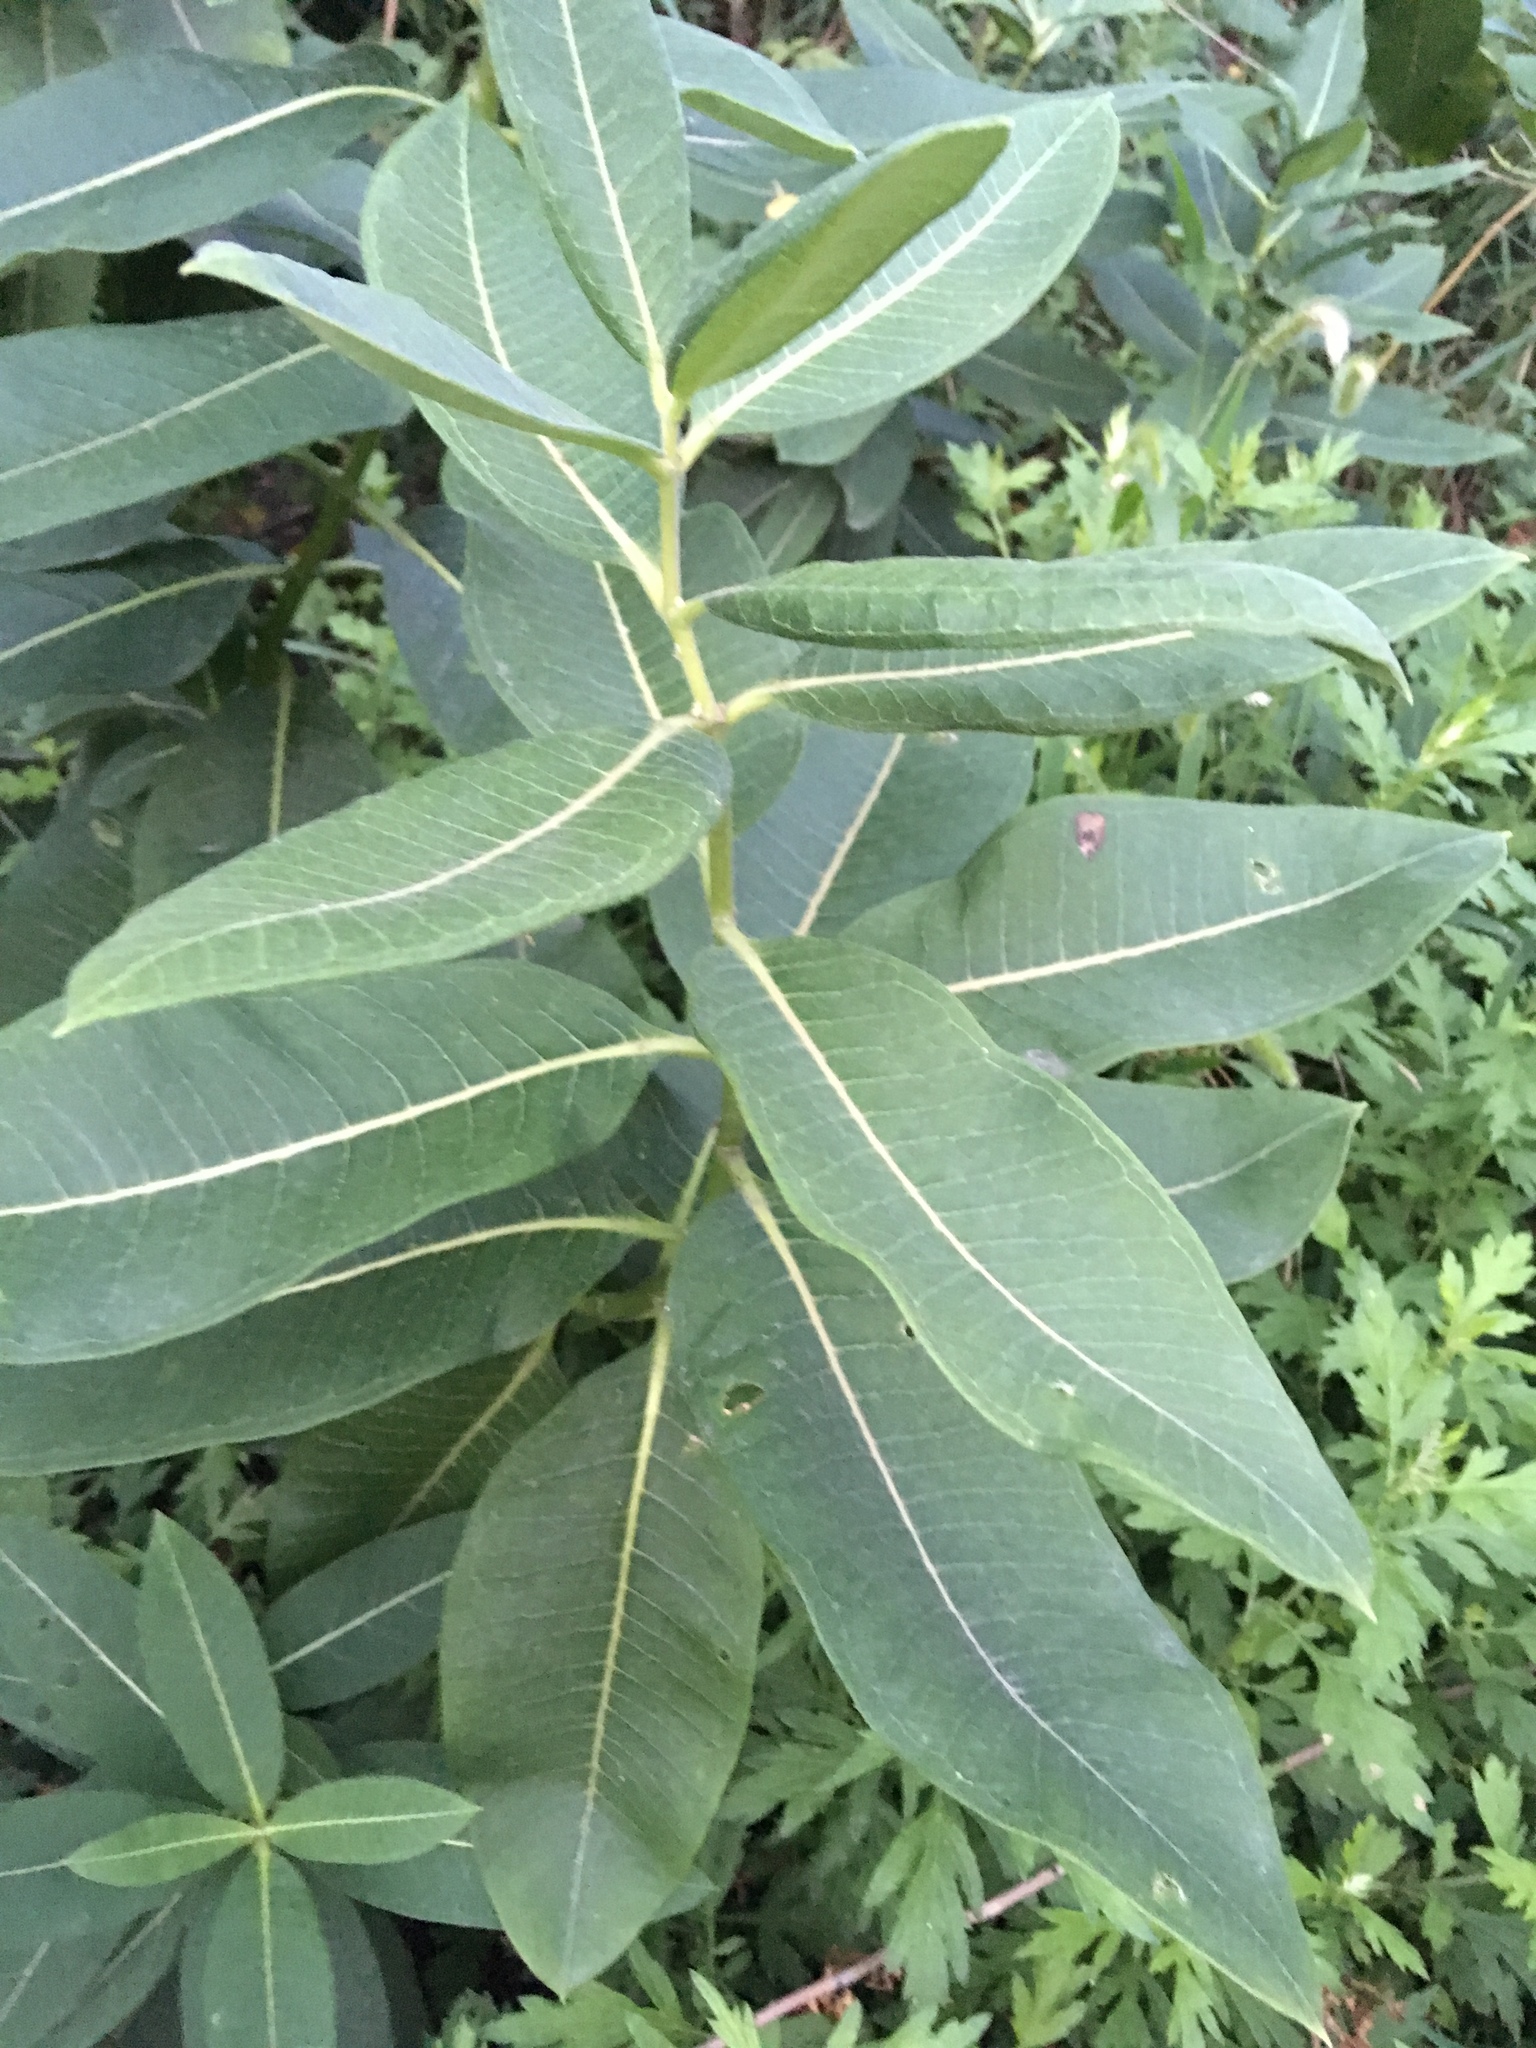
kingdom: Plantae
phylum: Tracheophyta
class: Magnoliopsida
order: Gentianales
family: Apocynaceae
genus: Asclepias
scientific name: Asclepias syriaca
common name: Common milkweed
